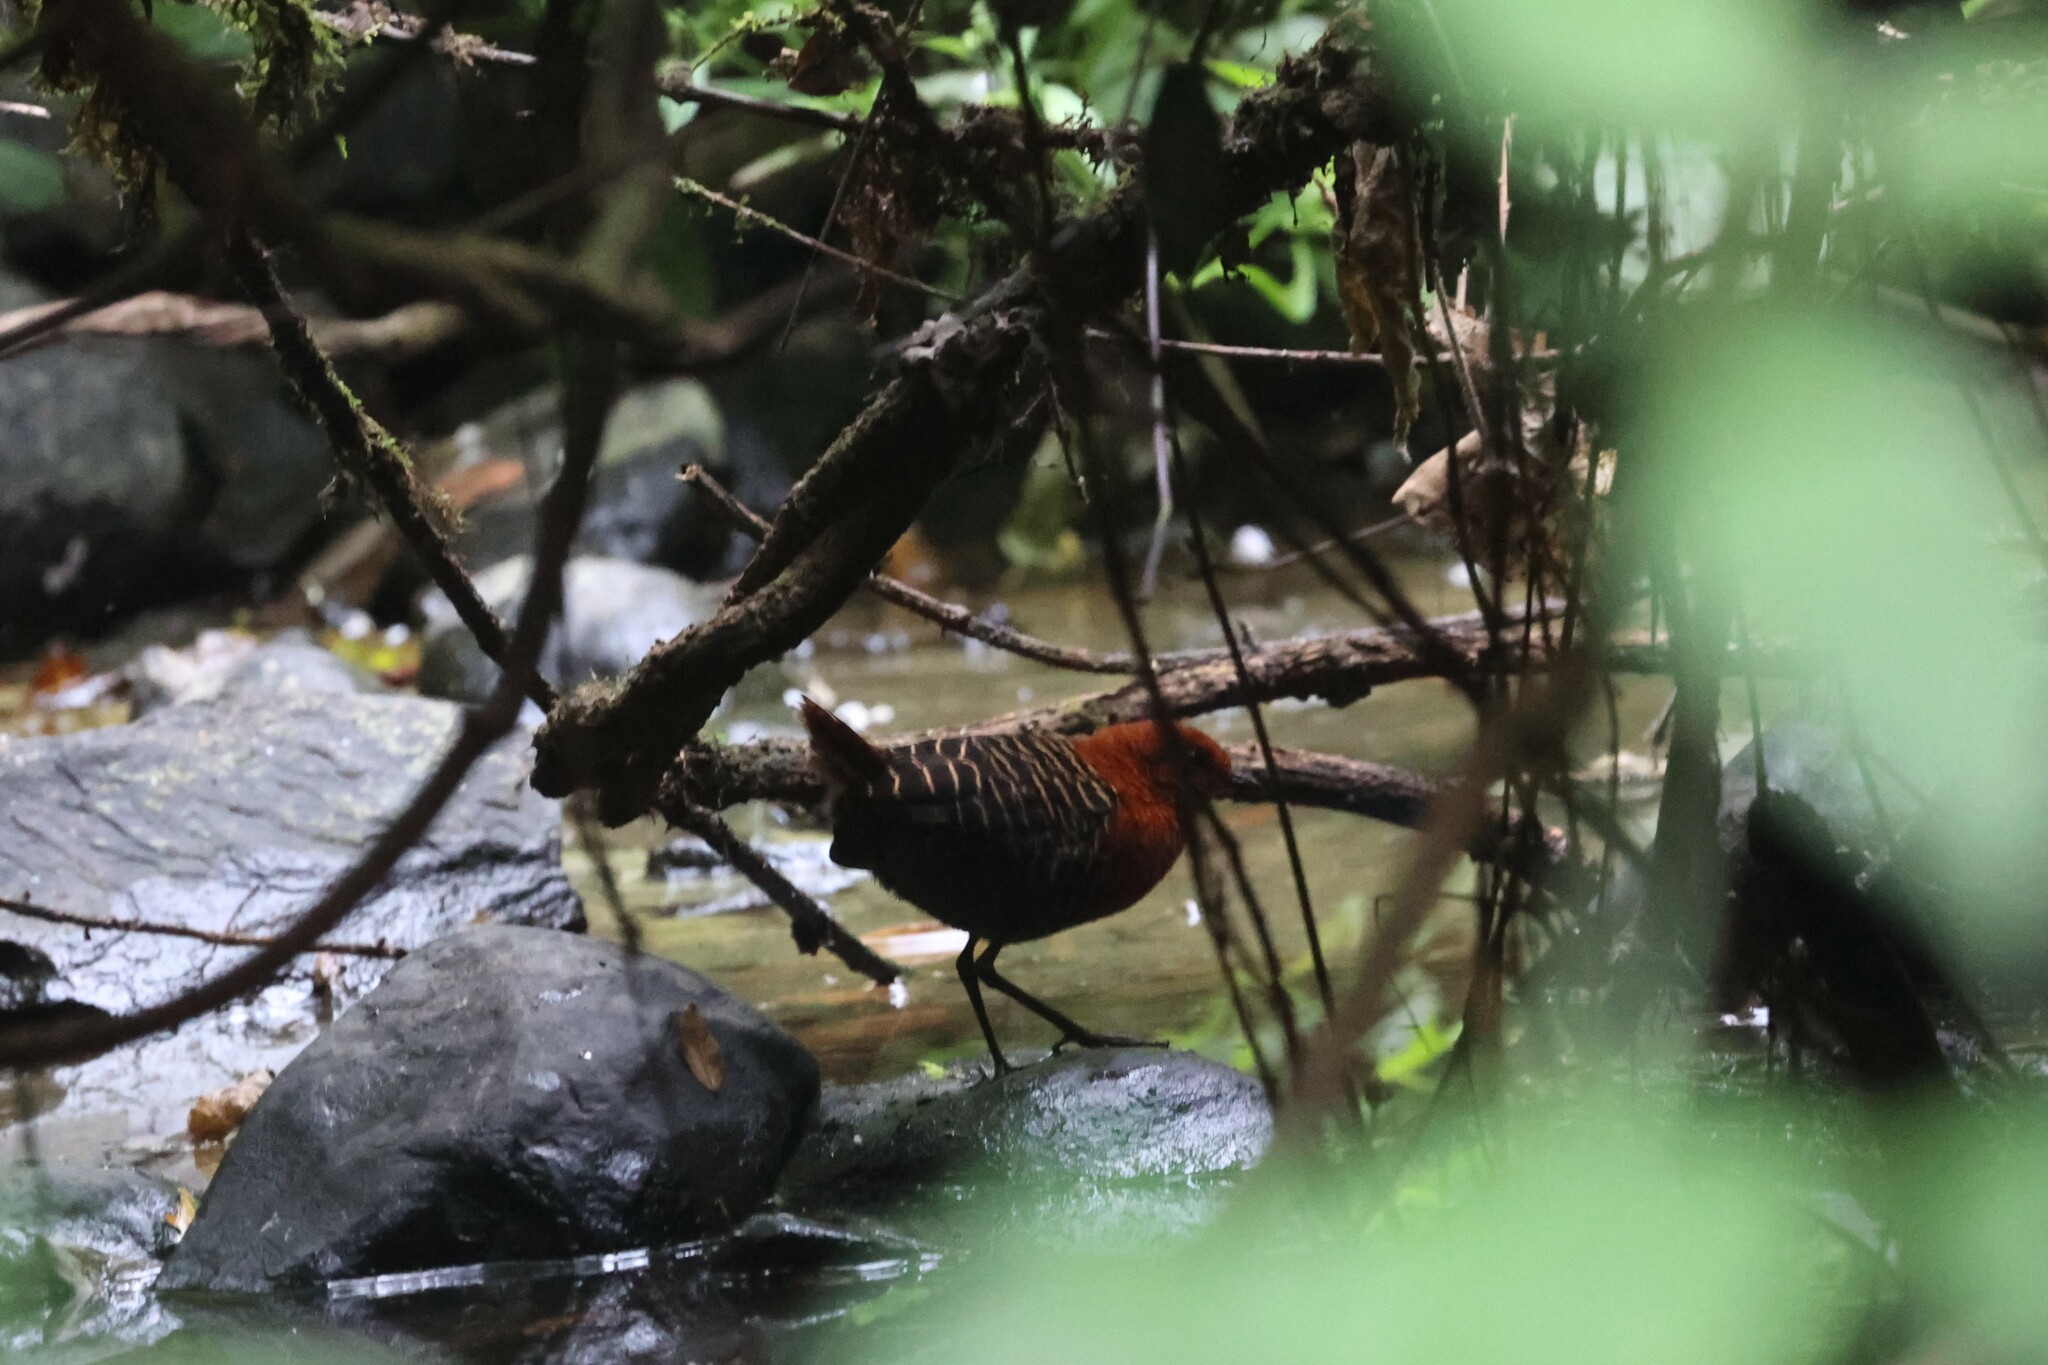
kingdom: Animalia
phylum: Chordata
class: Aves
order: Gruiformes
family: Rallidae
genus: Sarothrura
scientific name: Sarothrura pulchra
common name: White-spotted flufftail
